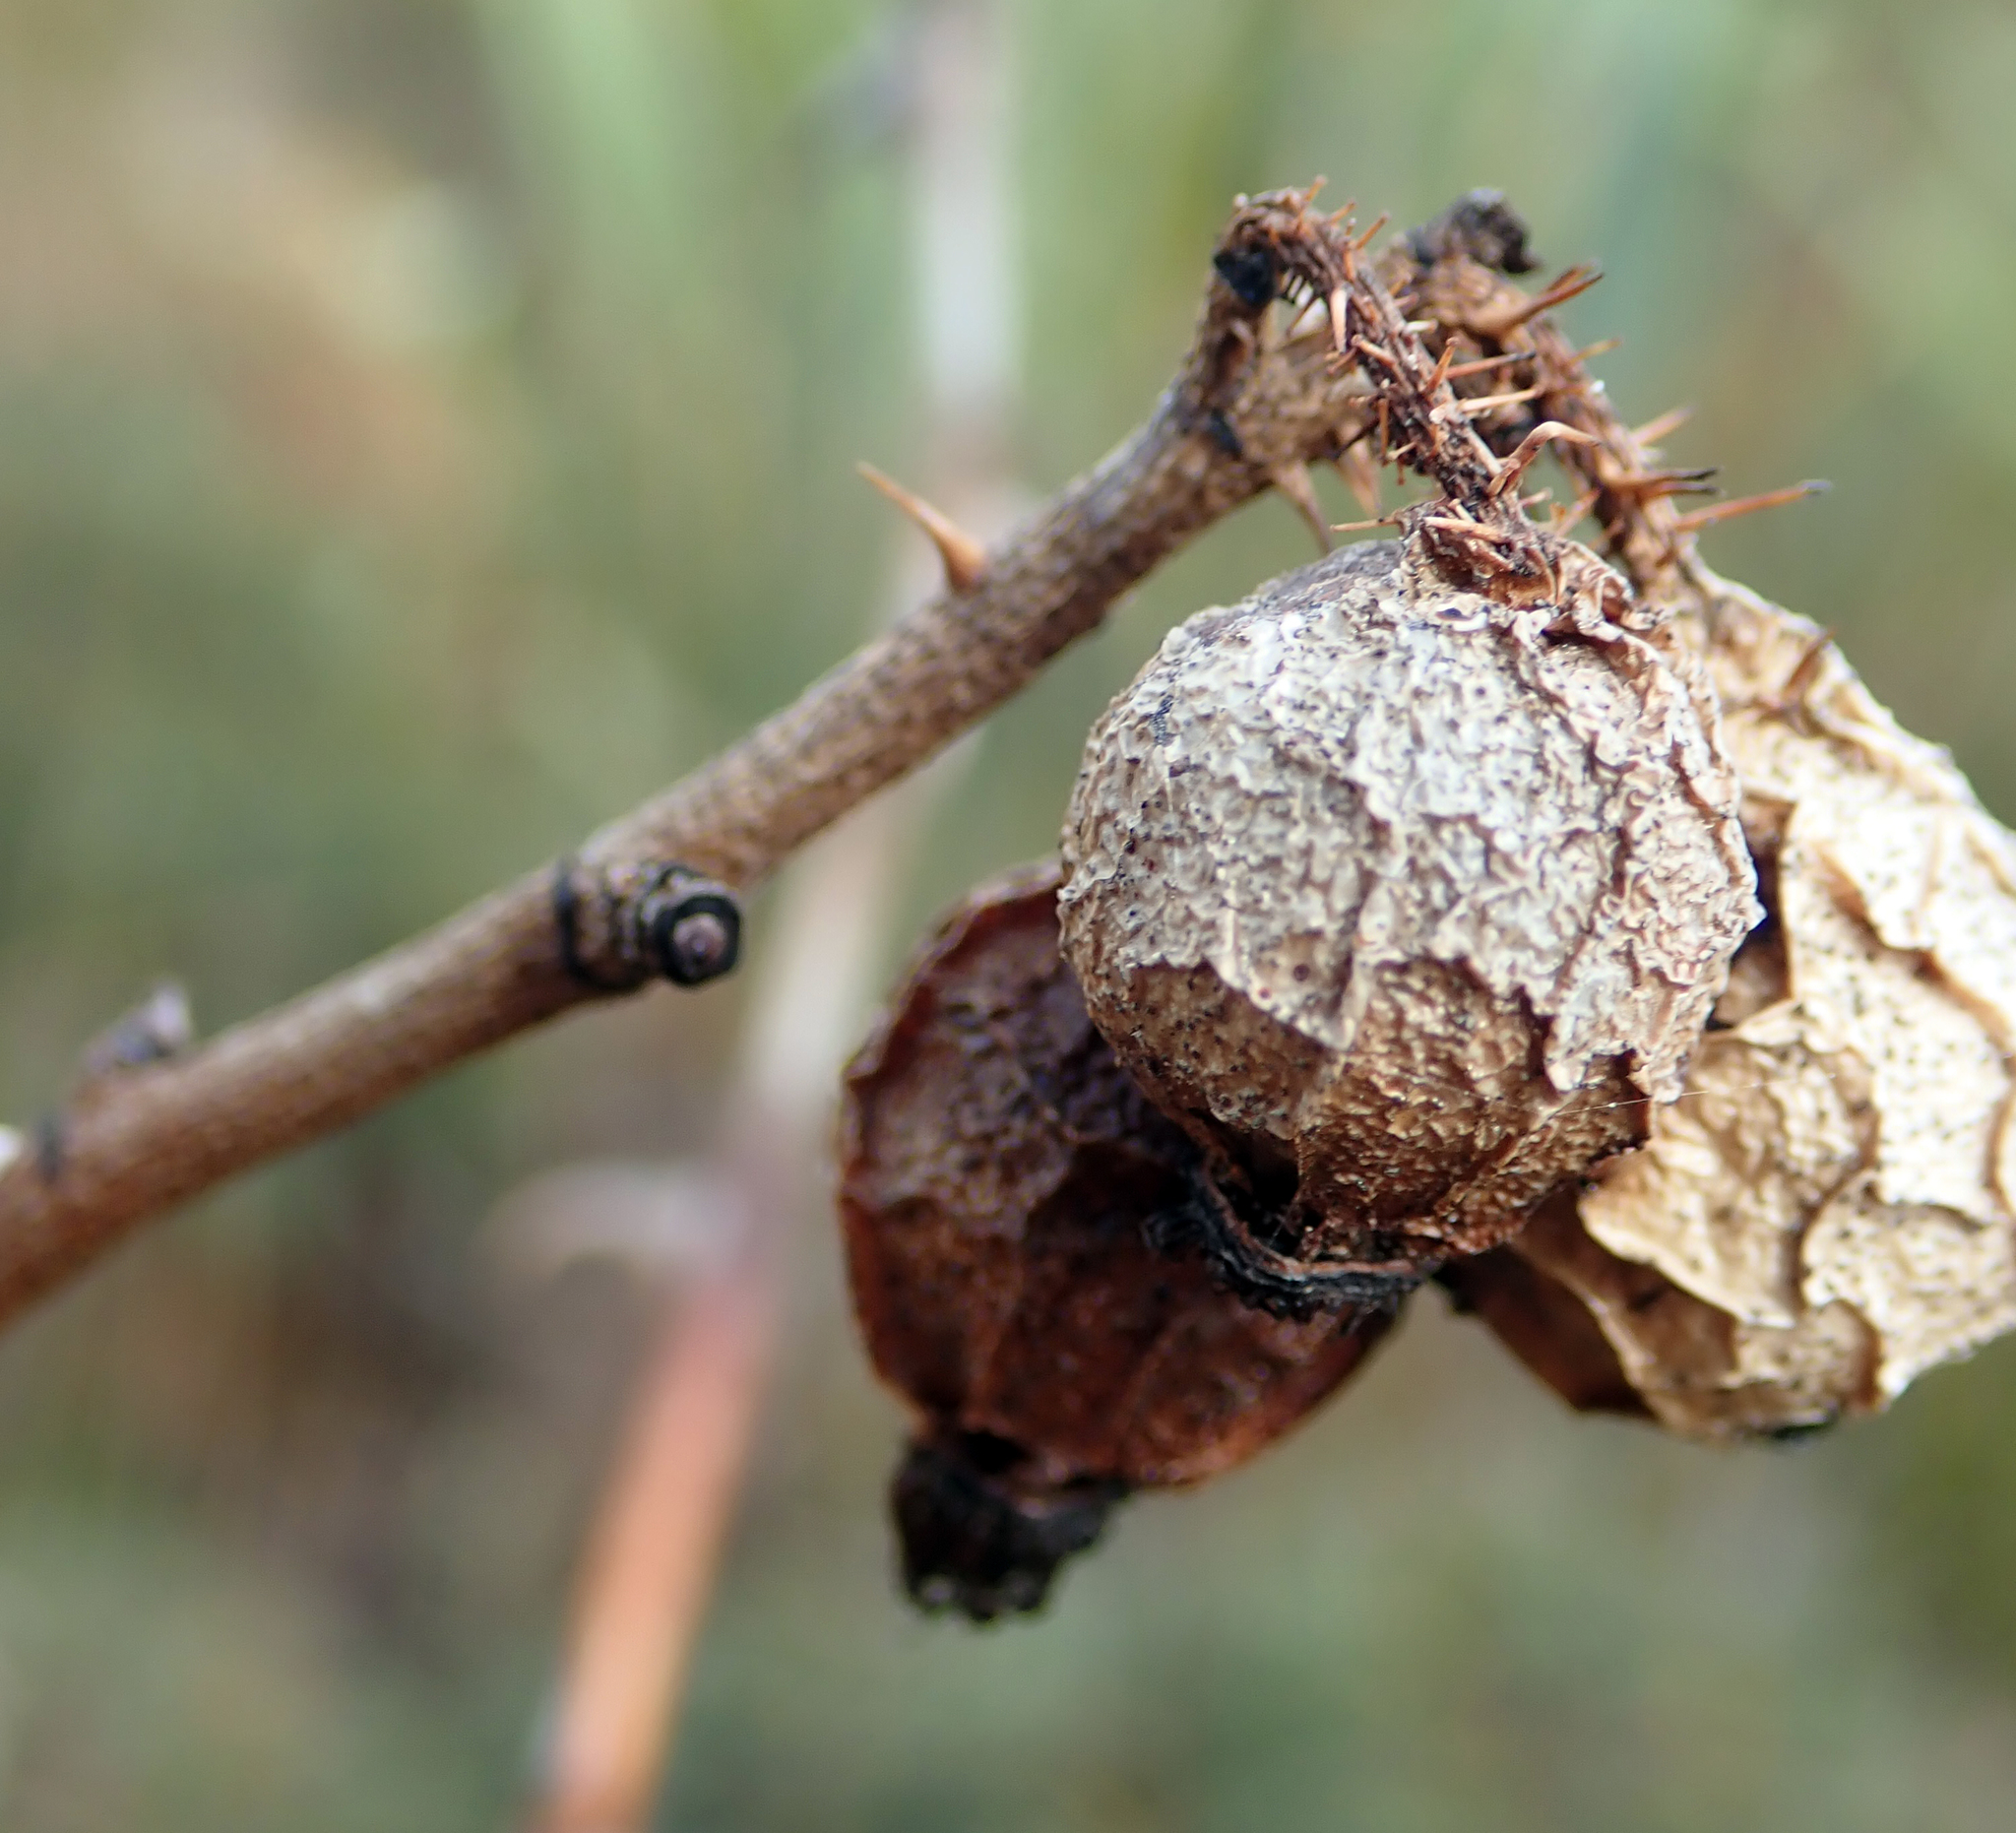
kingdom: Plantae
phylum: Tracheophyta
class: Magnoliopsida
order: Rosales
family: Rosaceae
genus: Rosa
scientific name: Rosa rubiginosa
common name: Sweet-briar
